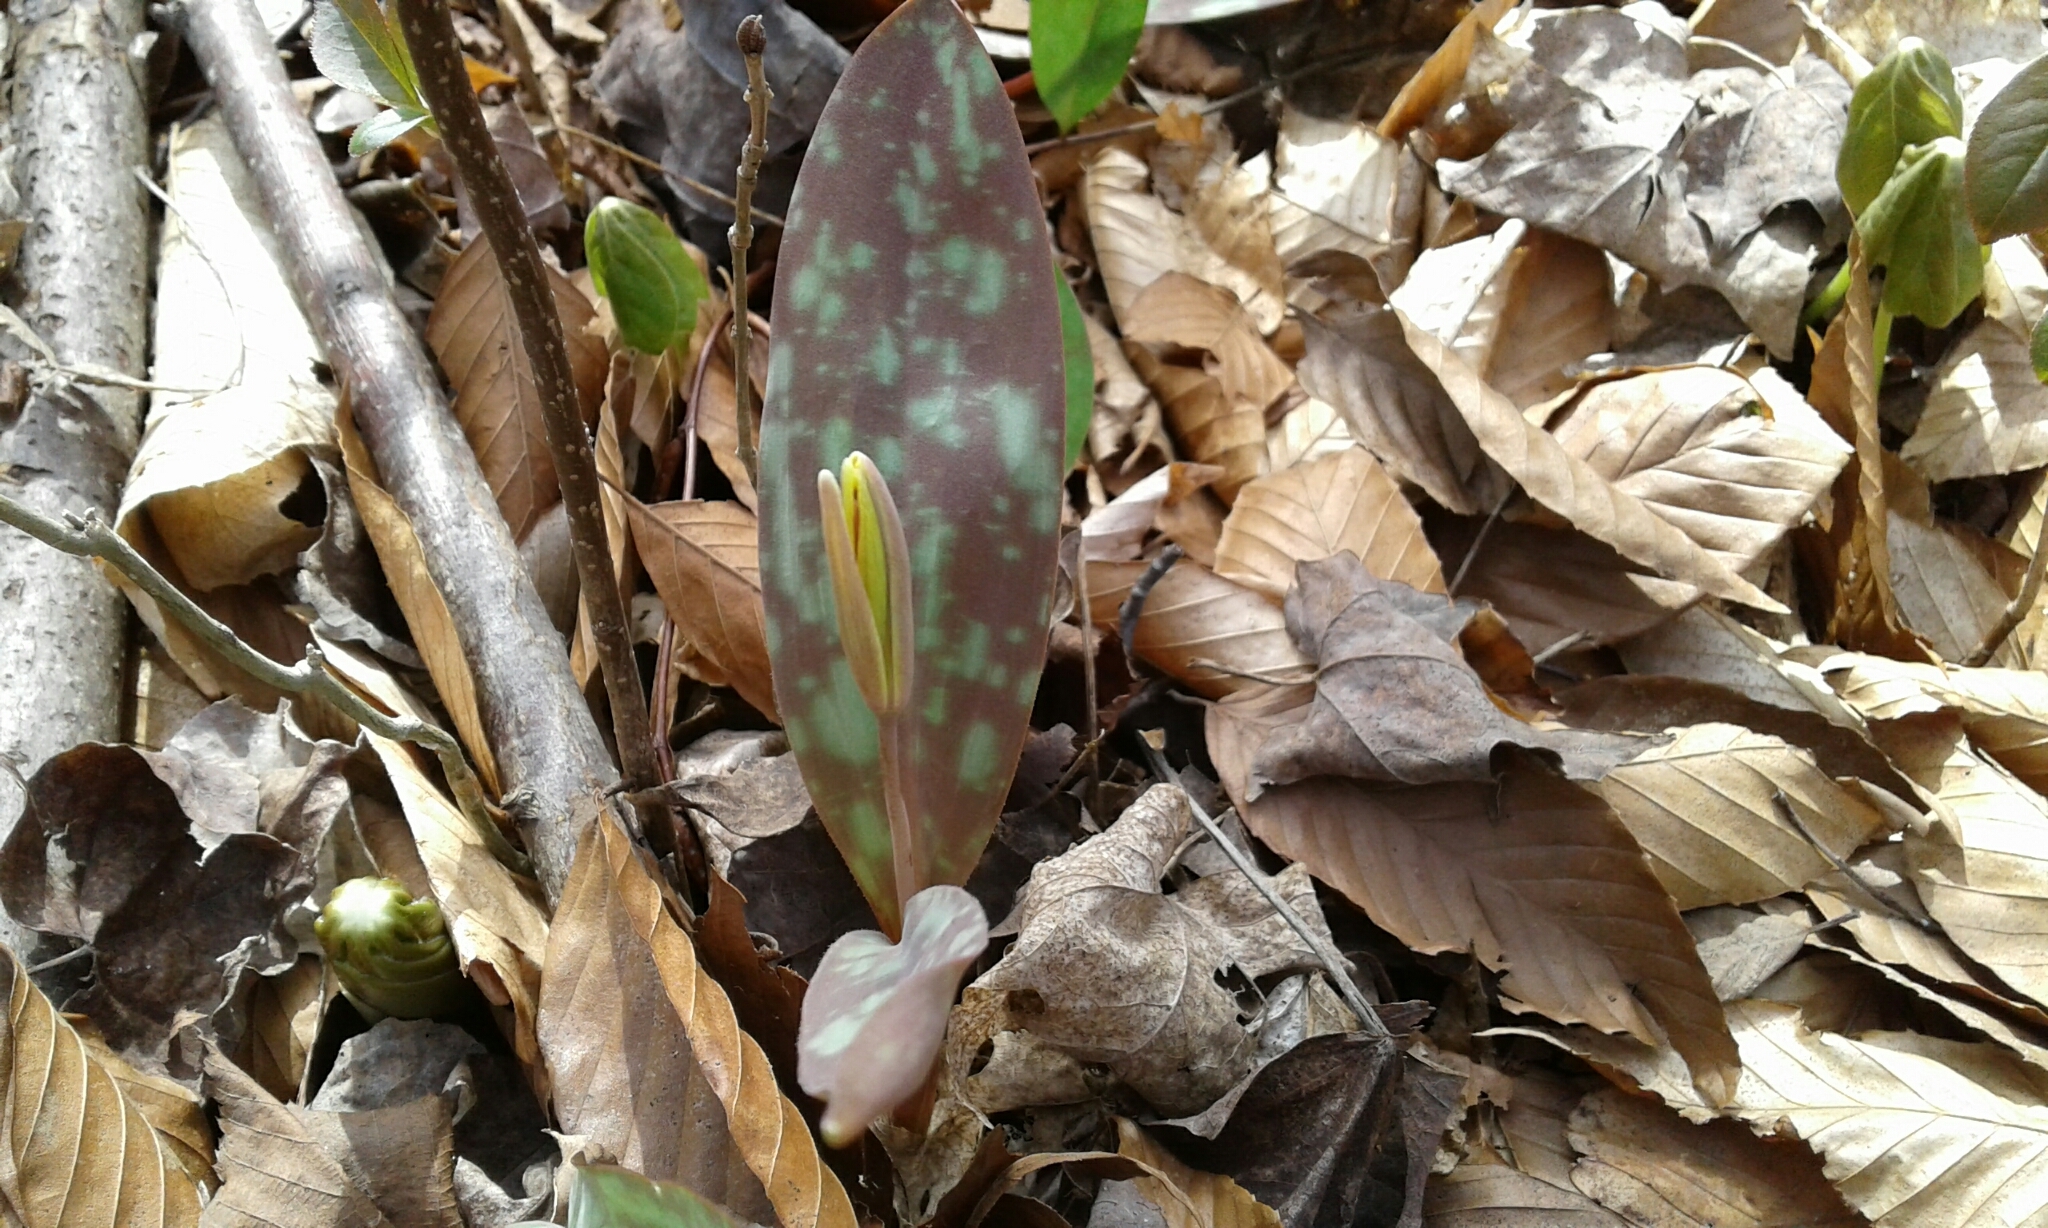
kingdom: Plantae
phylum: Tracheophyta
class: Liliopsida
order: Liliales
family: Liliaceae
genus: Erythronium
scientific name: Erythronium americanum
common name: Yellow adder's-tongue
